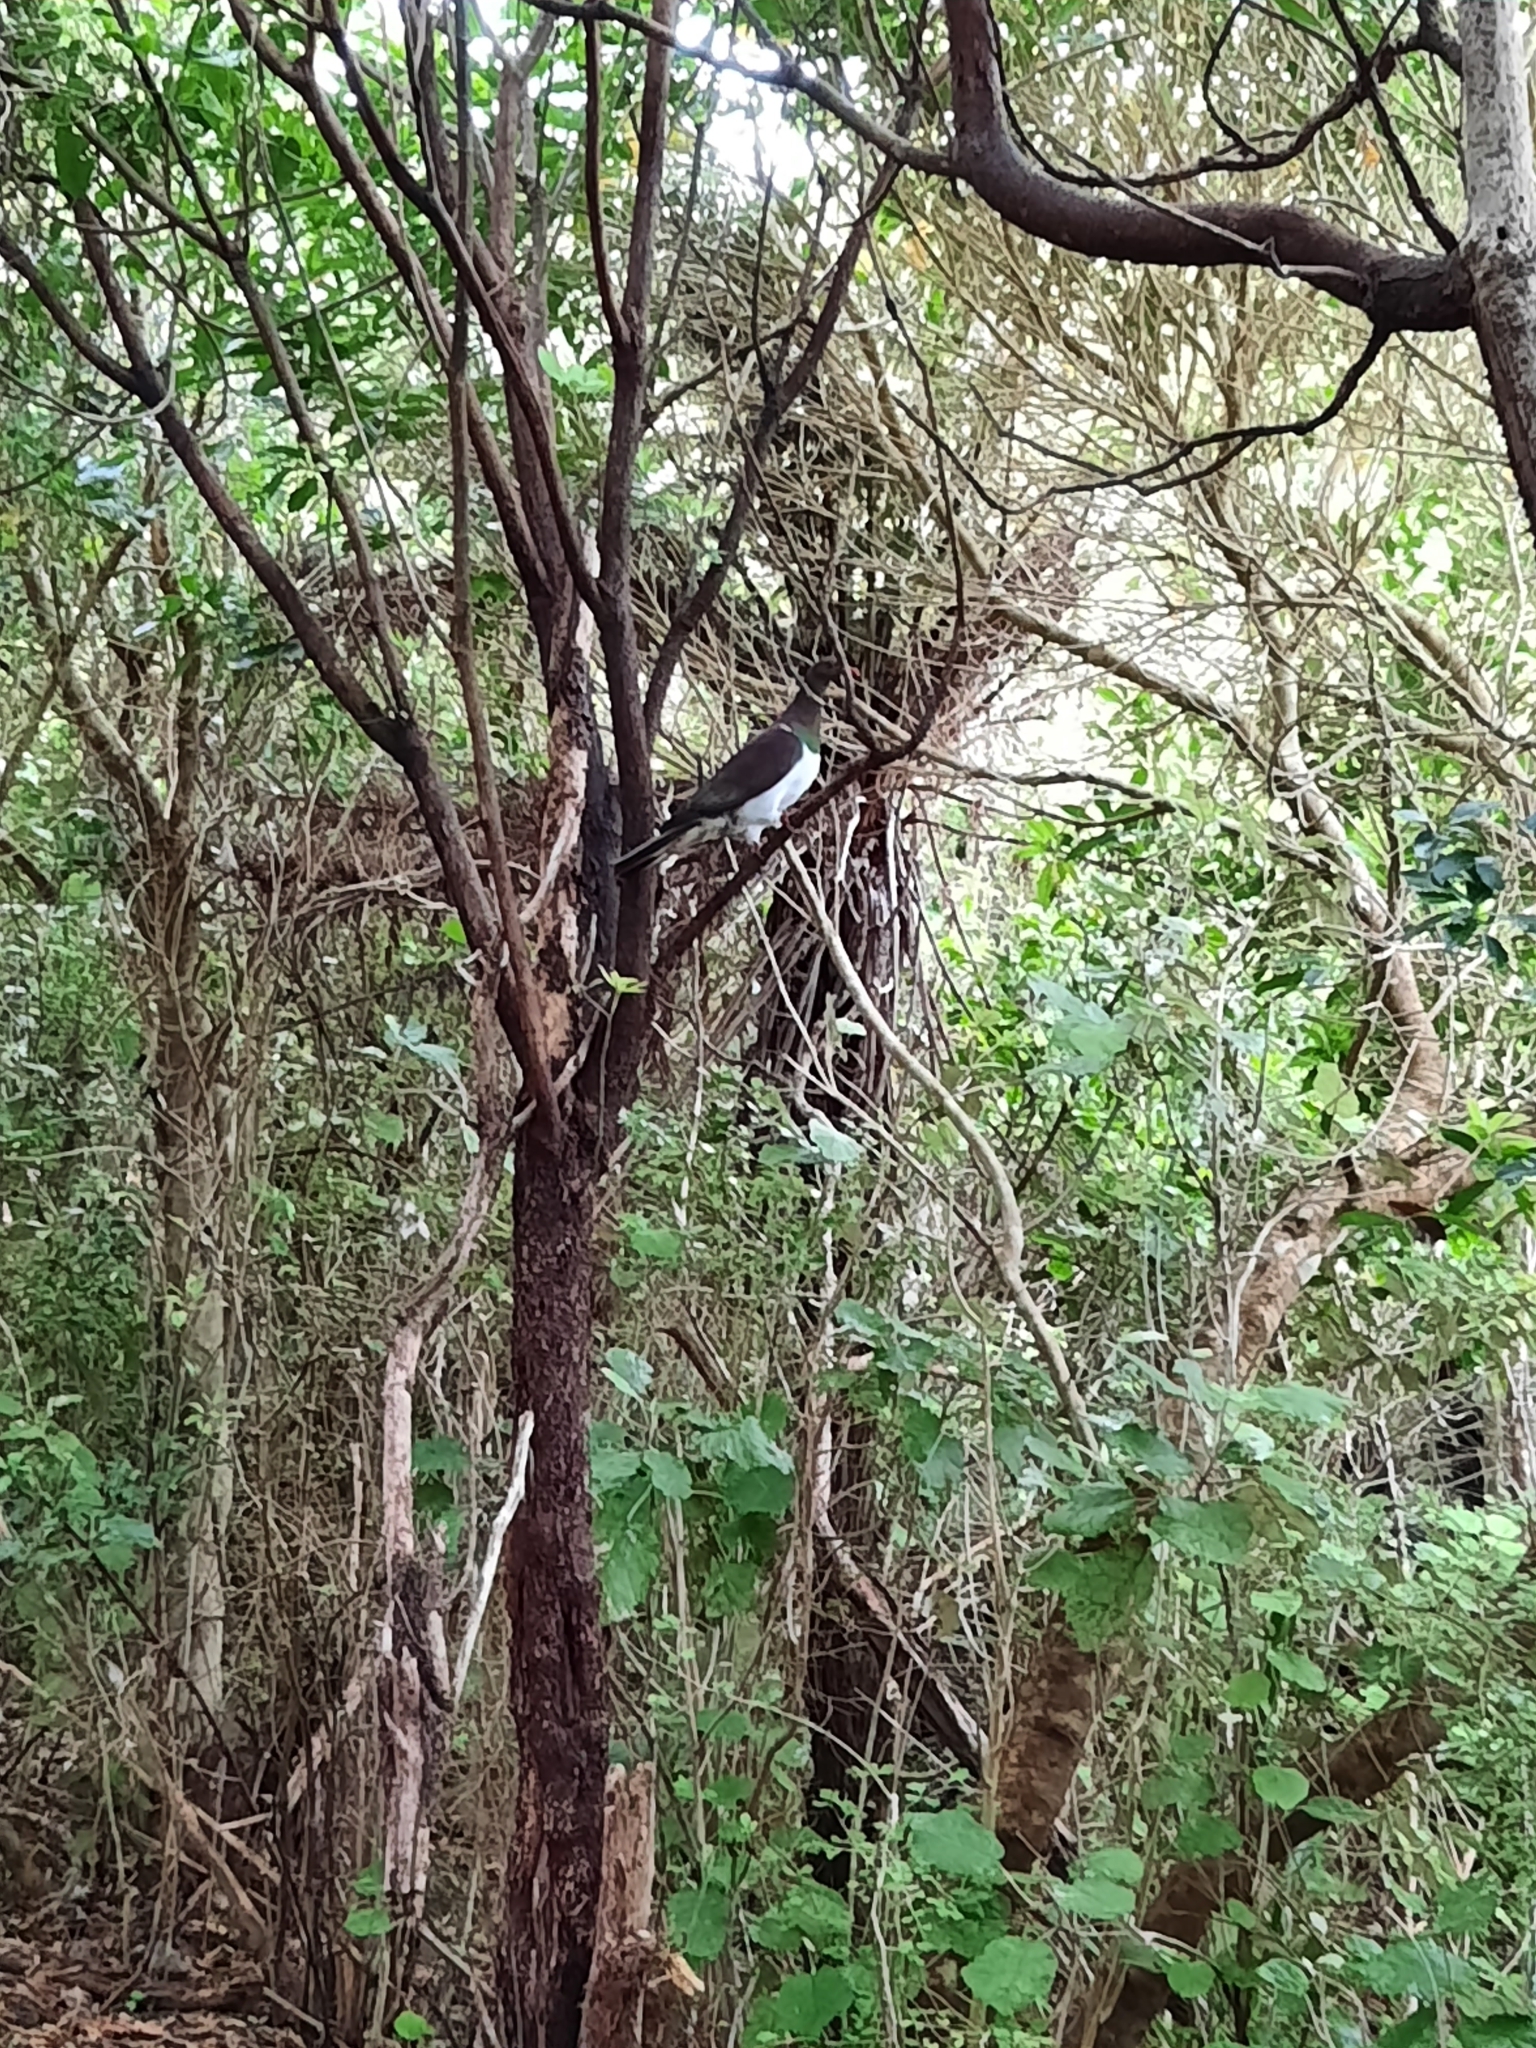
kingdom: Animalia
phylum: Chordata
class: Aves
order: Columbiformes
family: Columbidae
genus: Hemiphaga
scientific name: Hemiphaga novaeseelandiae
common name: New zealand pigeon
